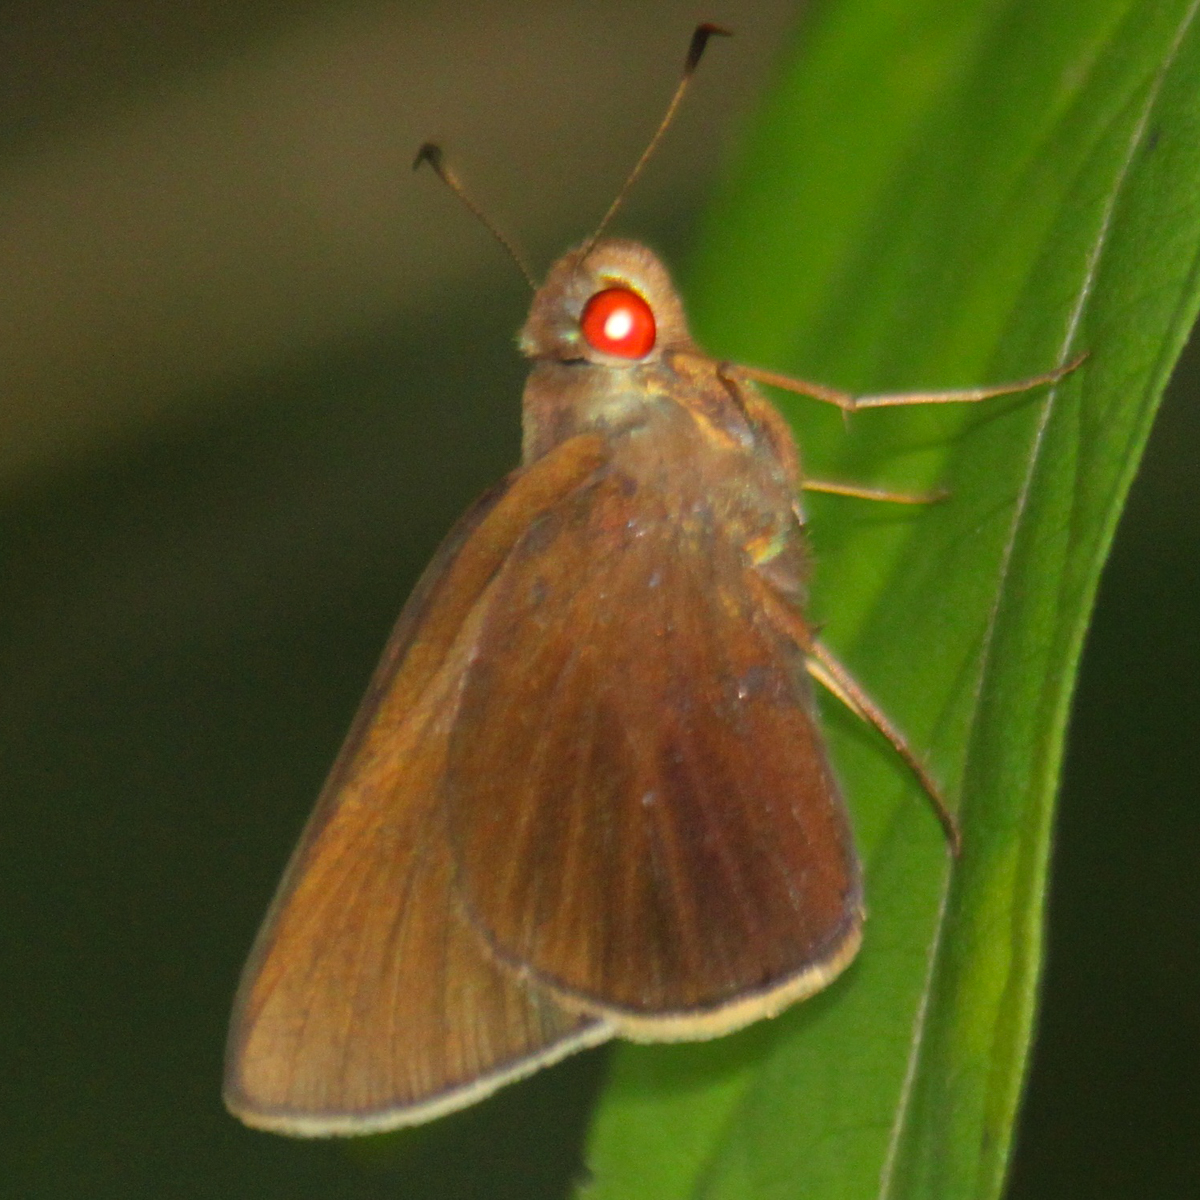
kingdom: Animalia
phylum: Arthropoda
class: Insecta
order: Lepidoptera
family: Hesperiidae
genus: Matapa
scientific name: Matapa aria
